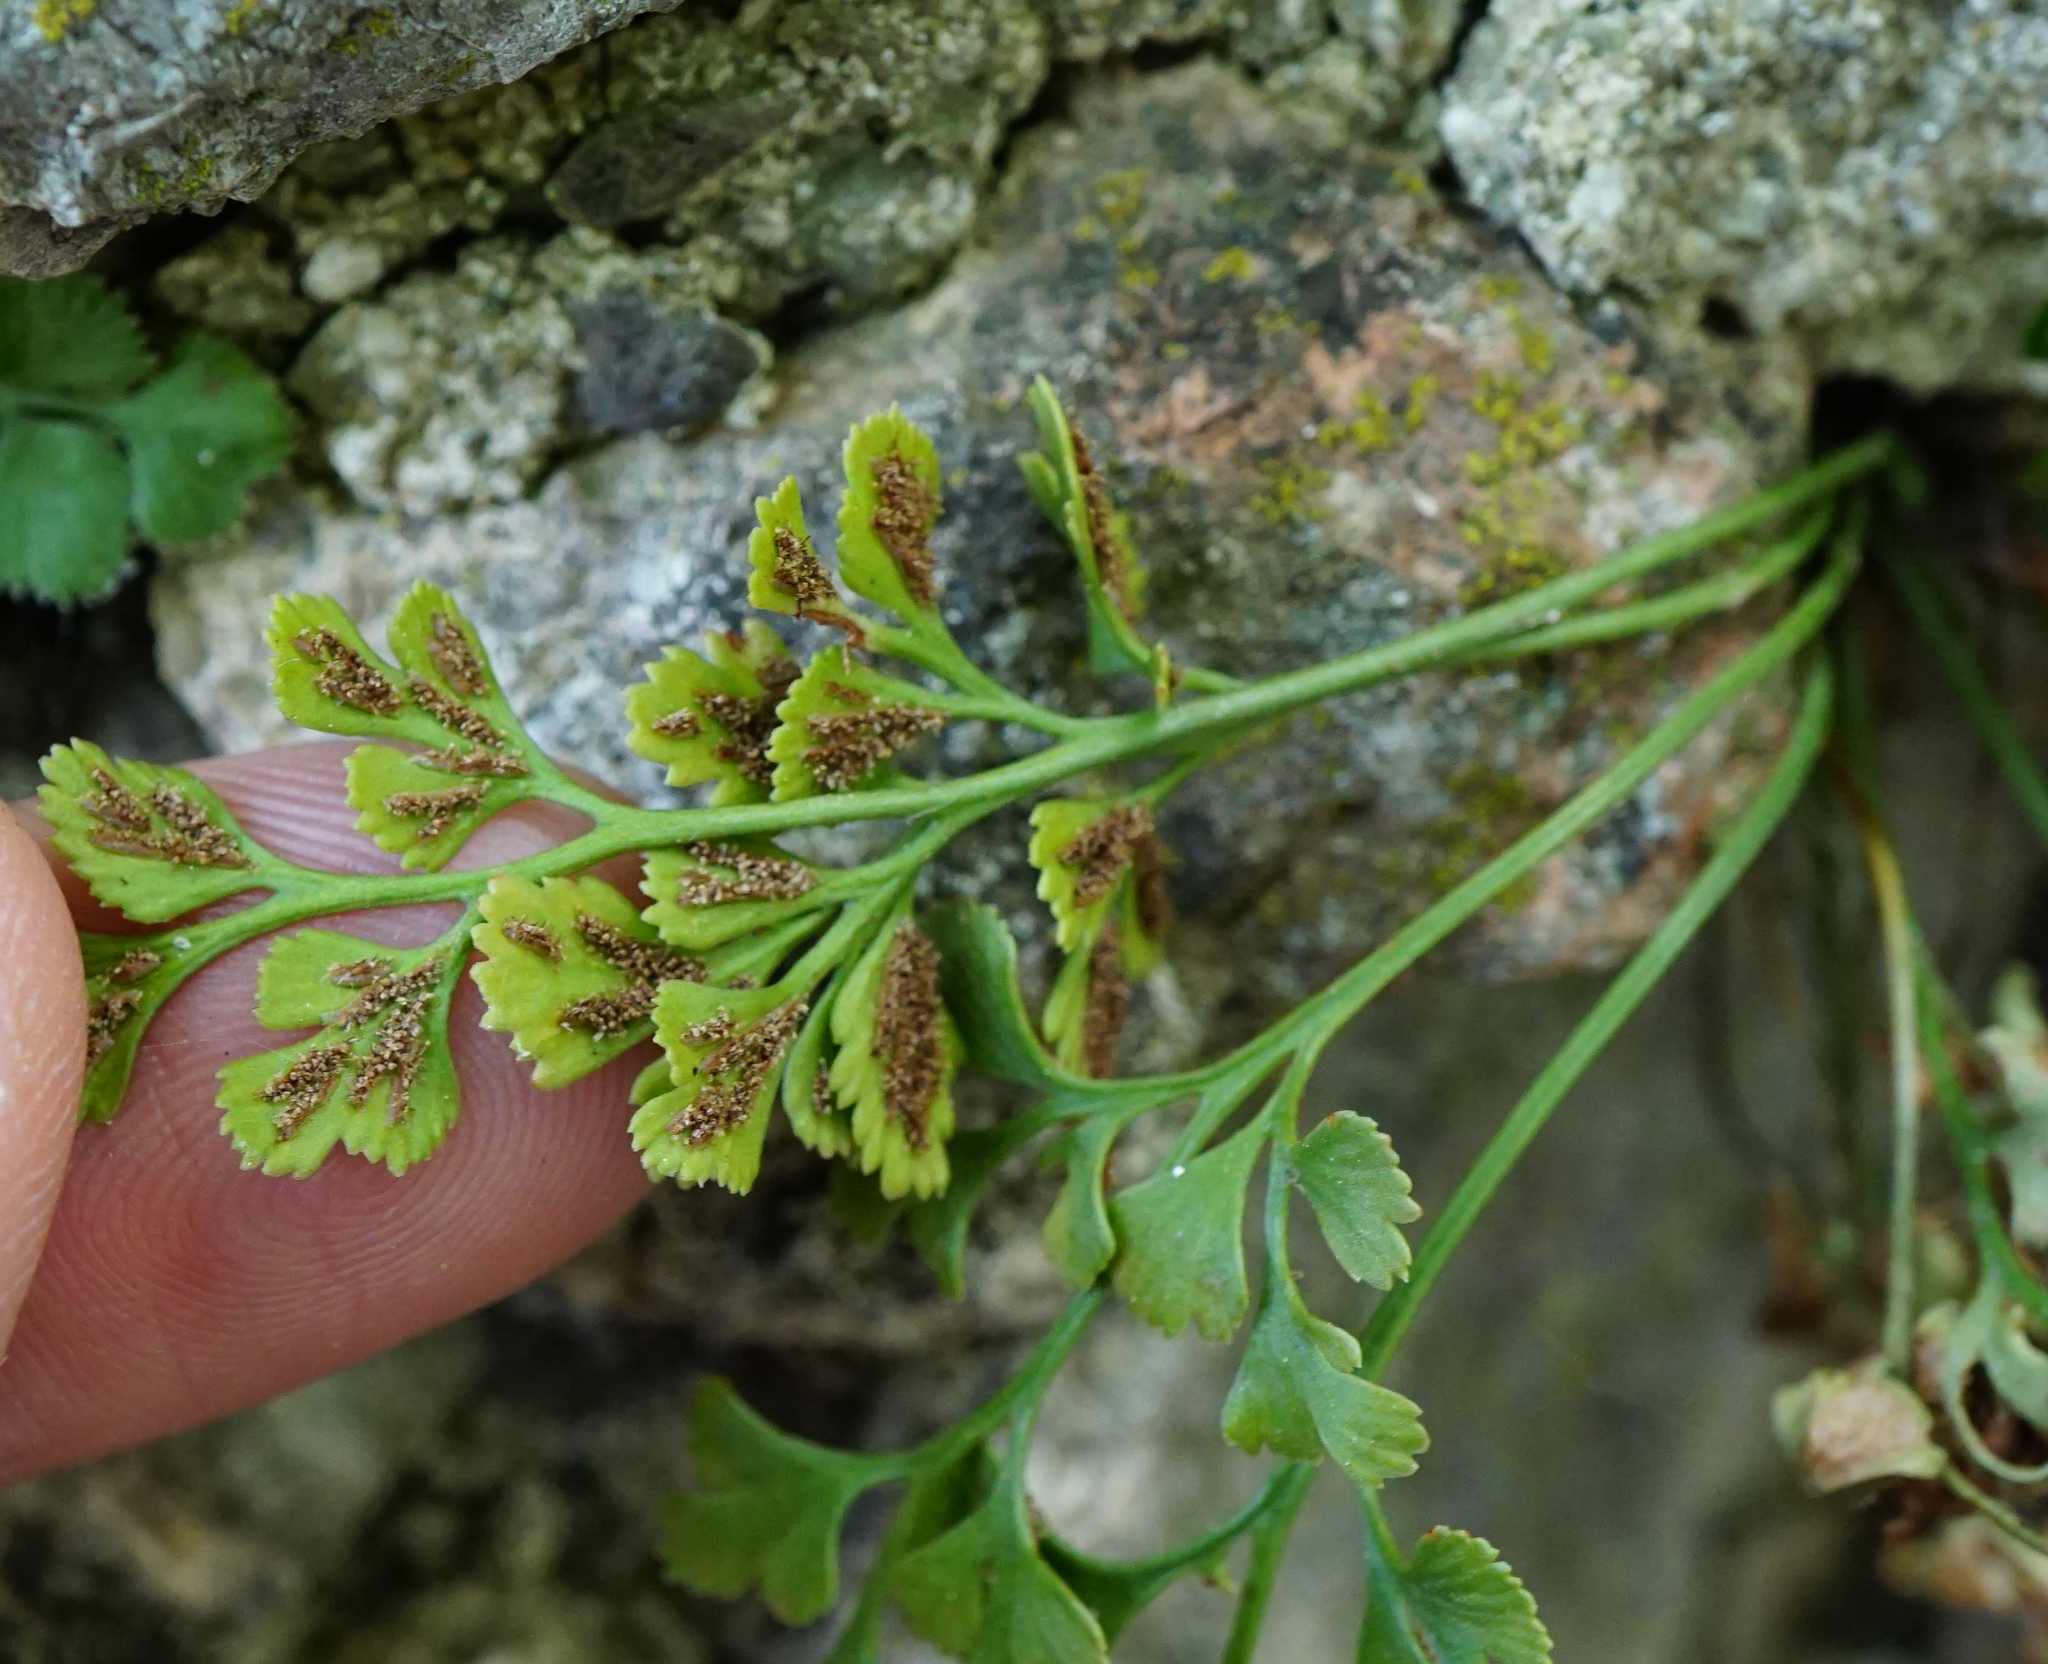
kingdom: Plantae
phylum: Tracheophyta
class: Polypodiopsida
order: Polypodiales
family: Aspleniaceae
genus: Asplenium
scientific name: Asplenium ruta-muraria
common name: Wall-rue
